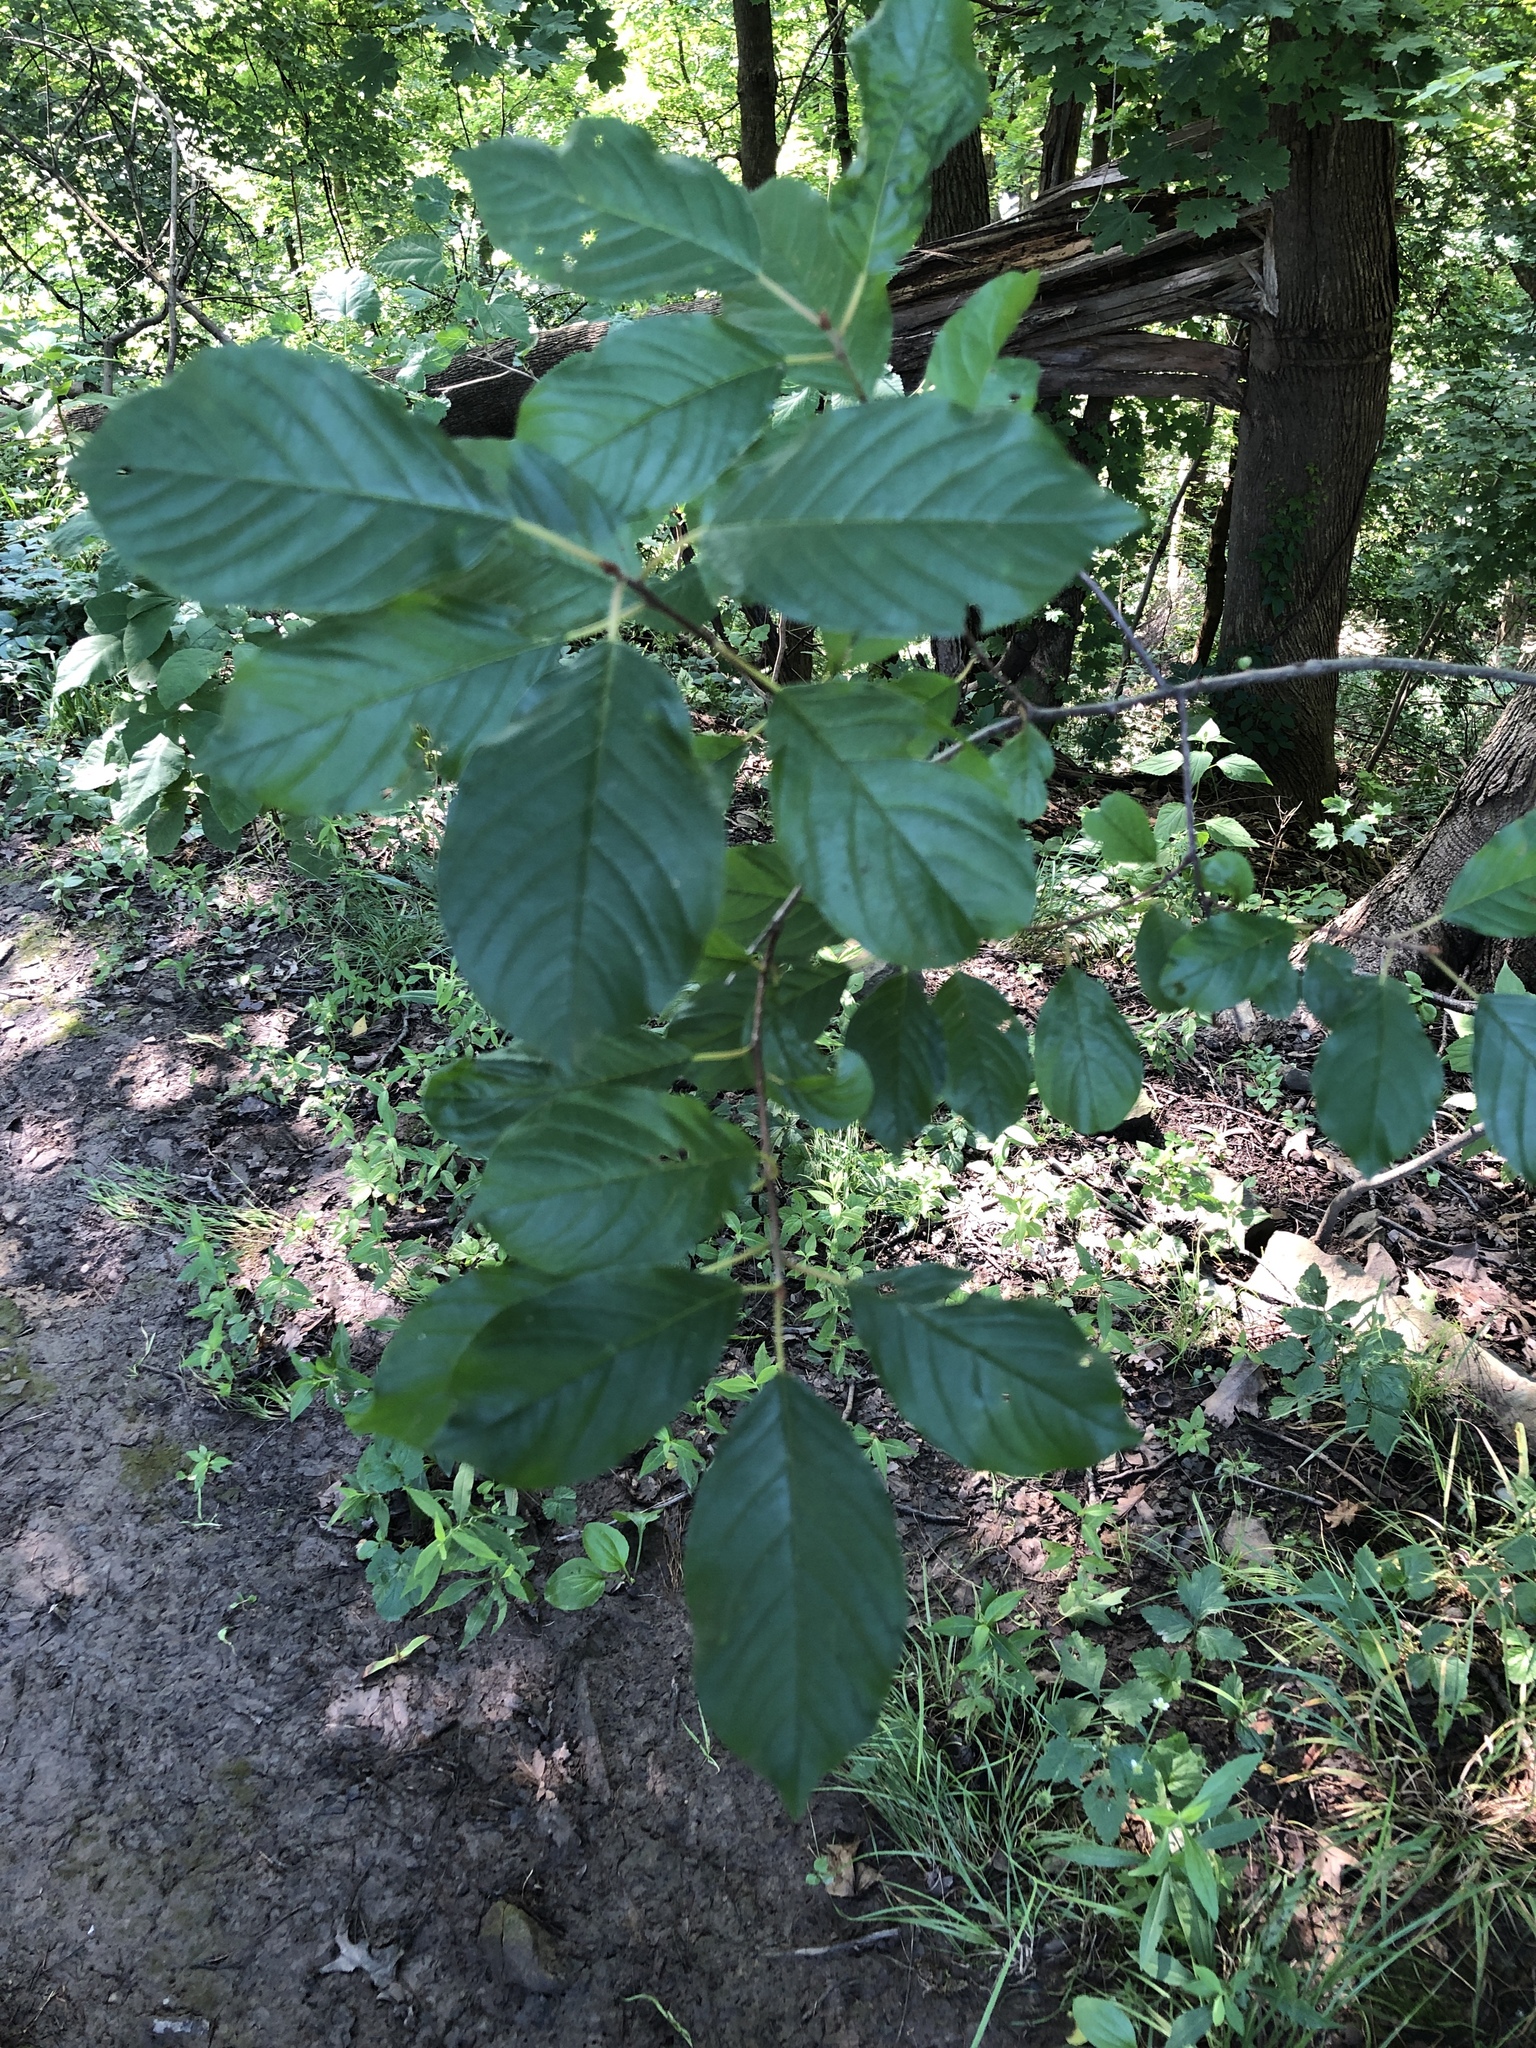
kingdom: Plantae
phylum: Tracheophyta
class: Magnoliopsida
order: Rosales
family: Rhamnaceae
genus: Frangula
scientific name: Frangula alnus
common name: Alder buckthorn
